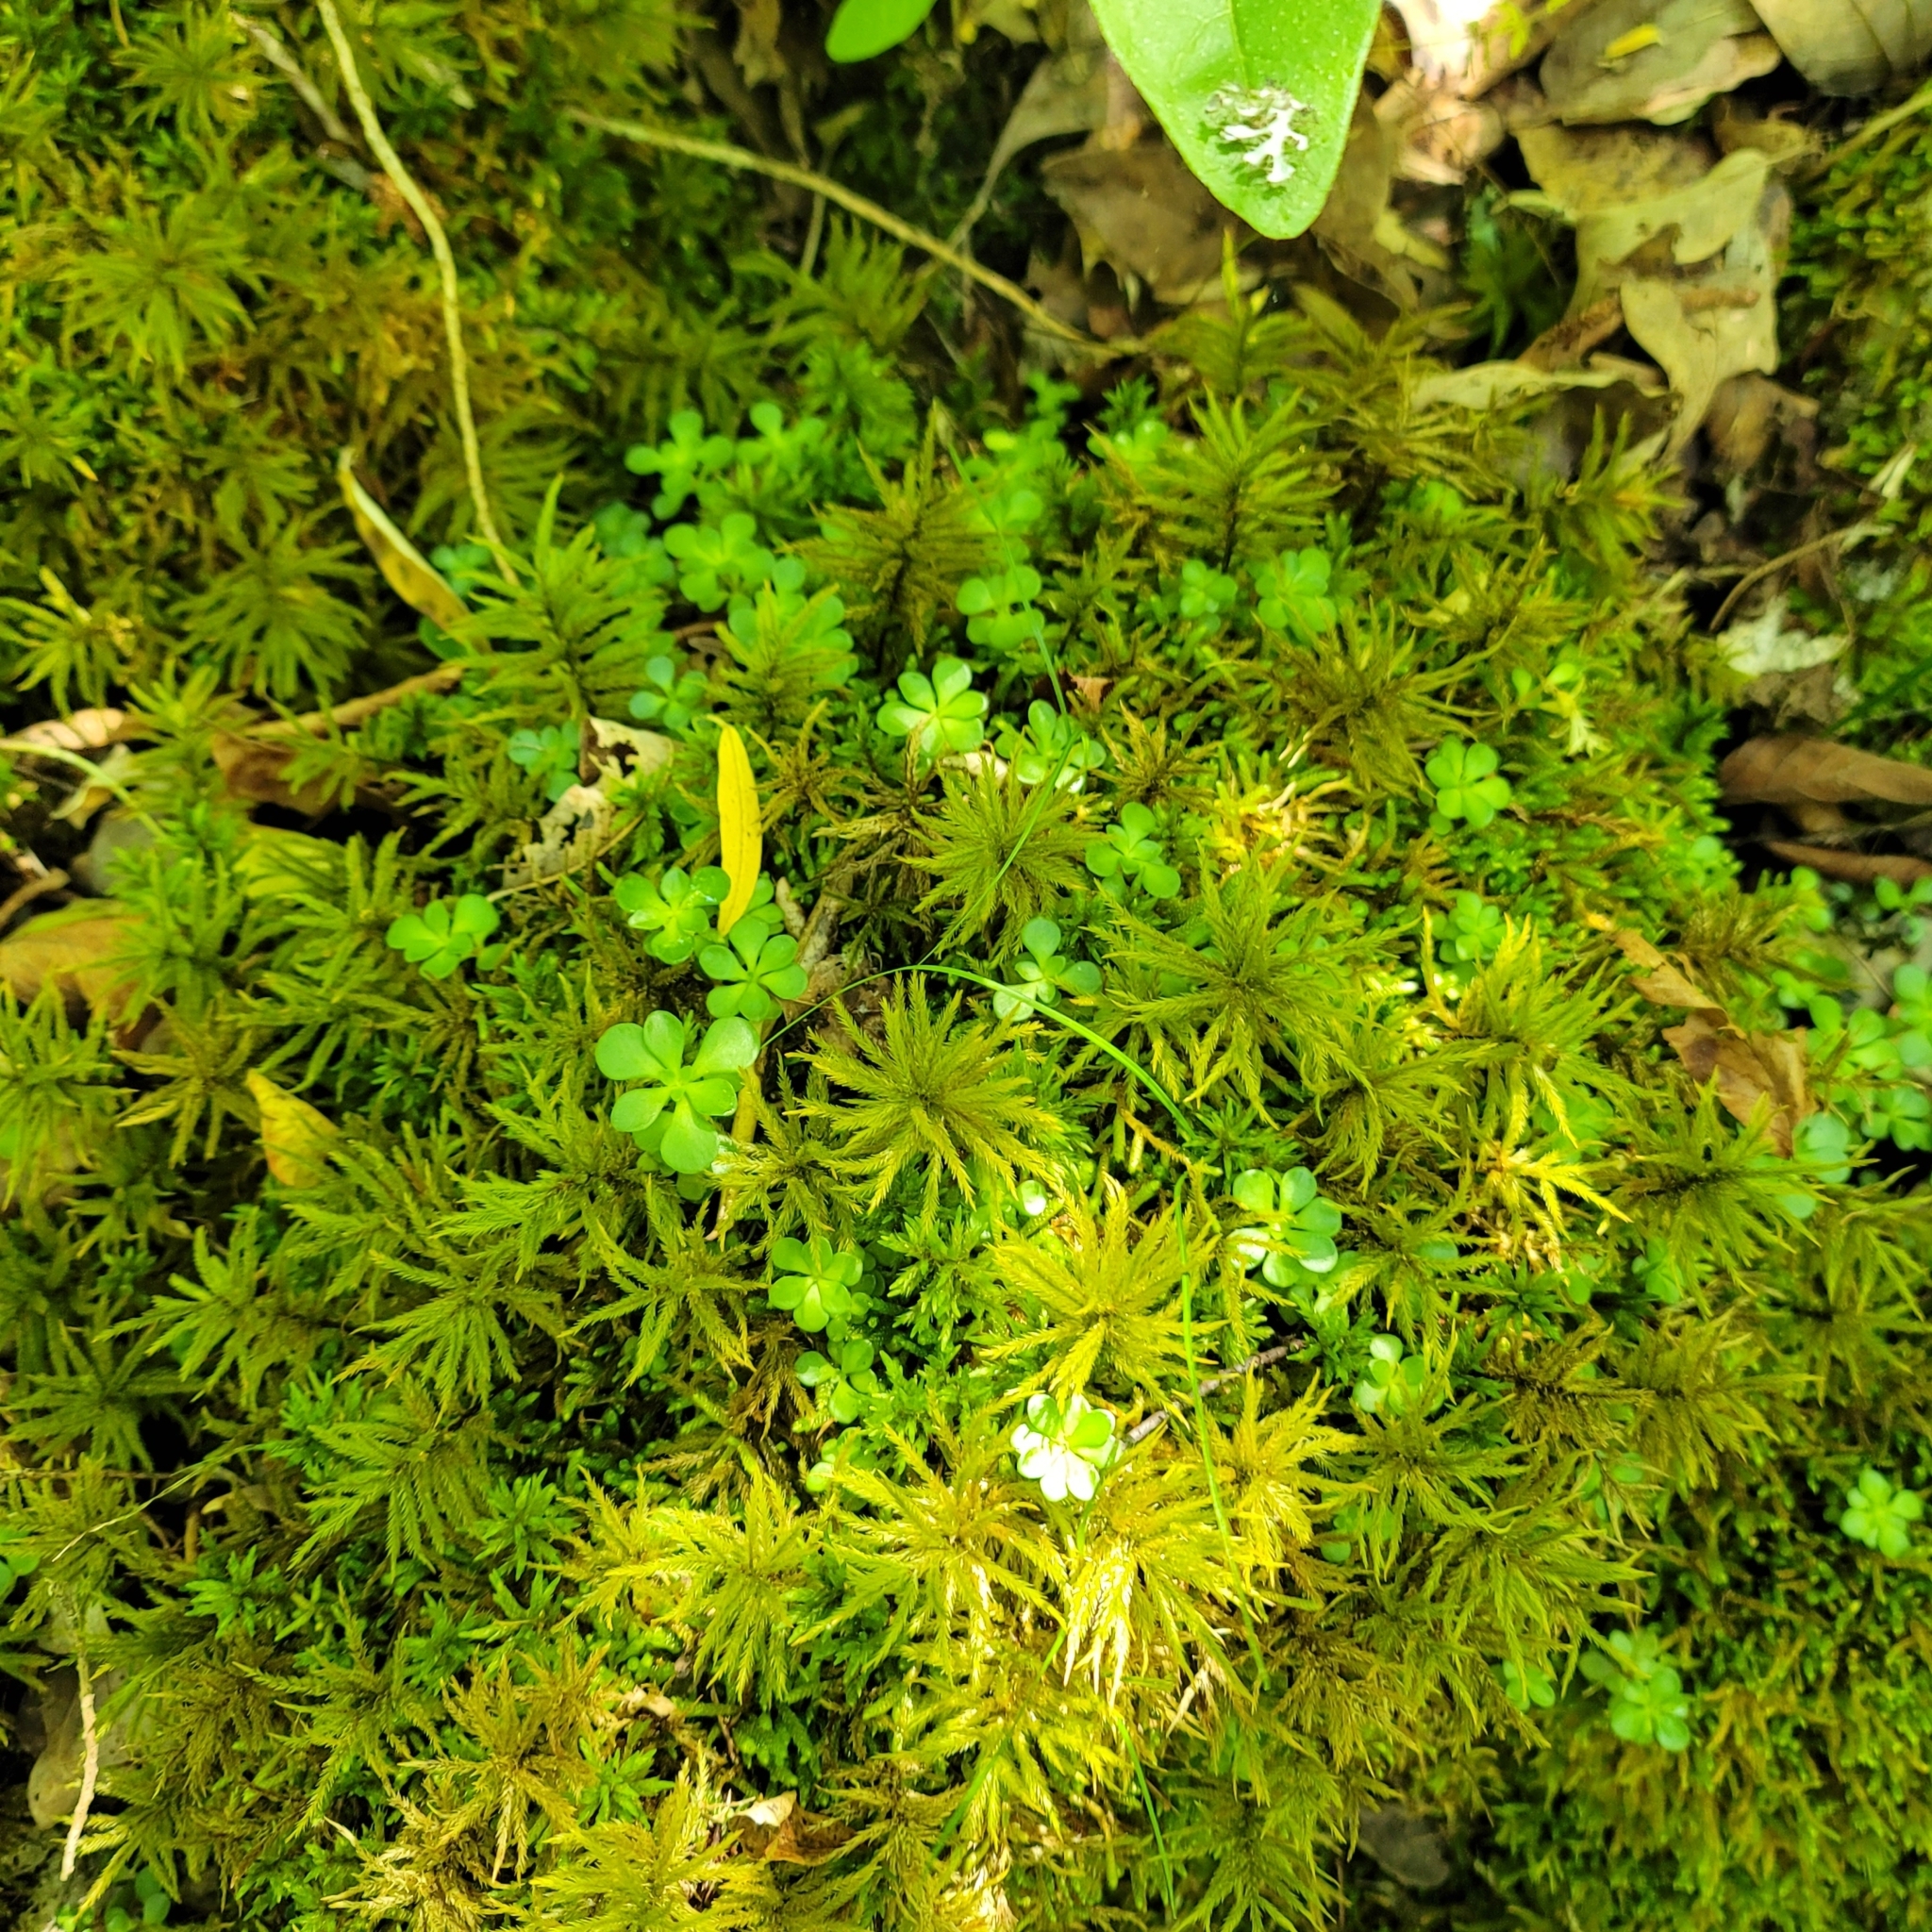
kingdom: Plantae
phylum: Tracheophyta
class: Magnoliopsida
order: Saxifragales
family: Crassulaceae
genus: Sedum
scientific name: Sedum ternatum
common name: Wild stonecrop
